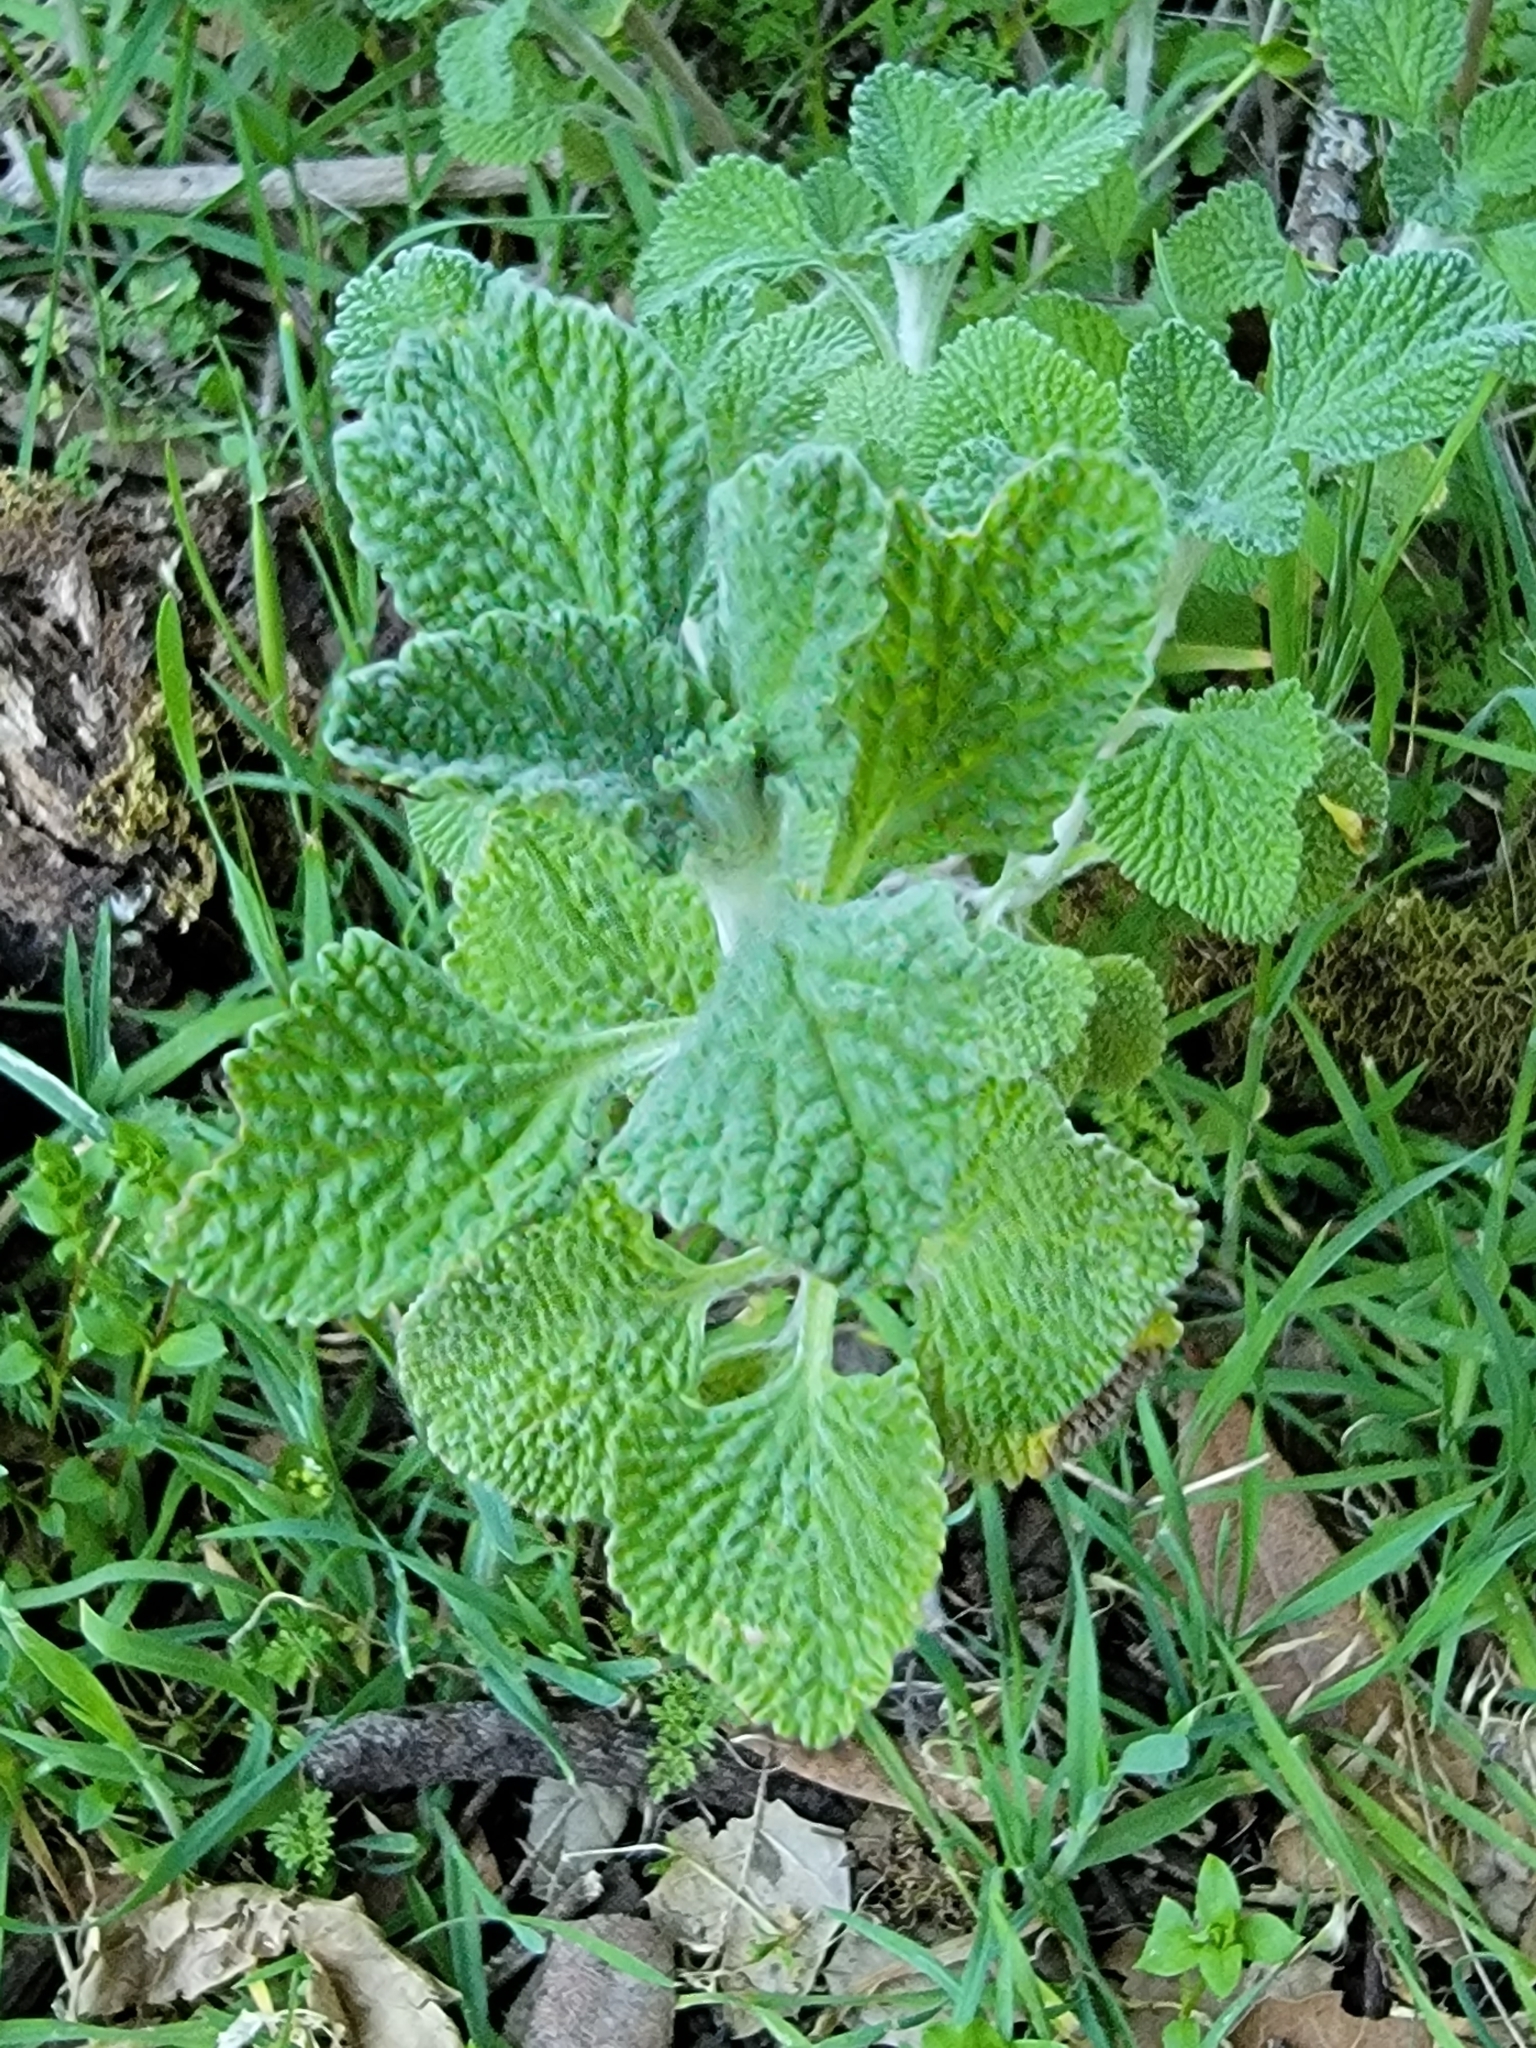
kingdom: Plantae
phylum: Tracheophyta
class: Magnoliopsida
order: Lamiales
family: Lamiaceae
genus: Marrubium
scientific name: Marrubium vulgare
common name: Horehound
